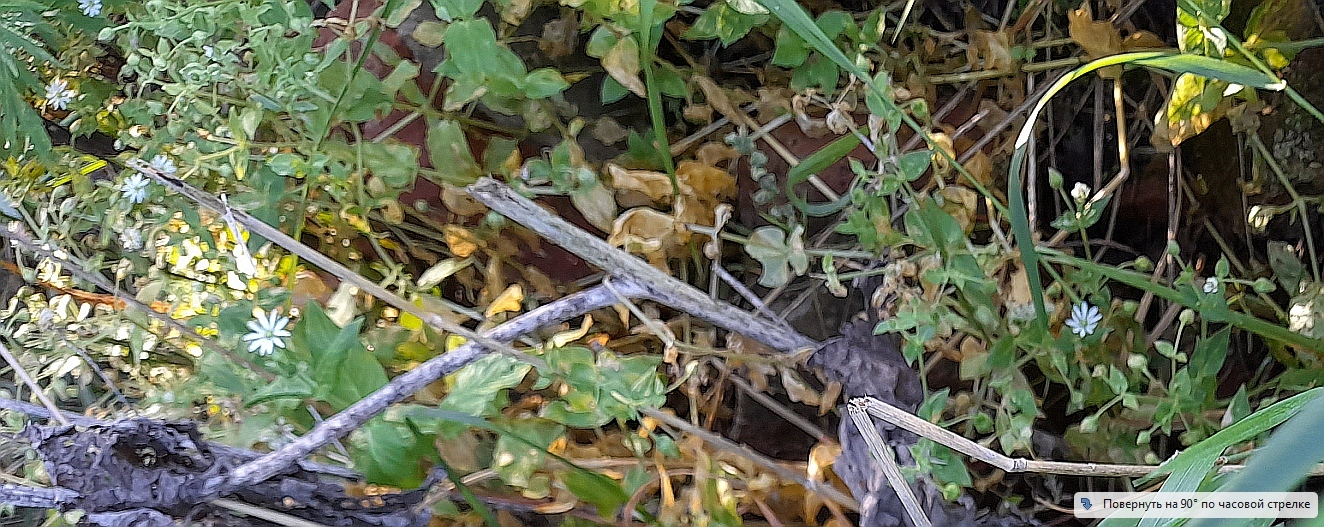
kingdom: Plantae
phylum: Tracheophyta
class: Magnoliopsida
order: Caryophyllales
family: Caryophyllaceae
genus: Stellaria
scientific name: Stellaria aquatica
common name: Water chickweed
